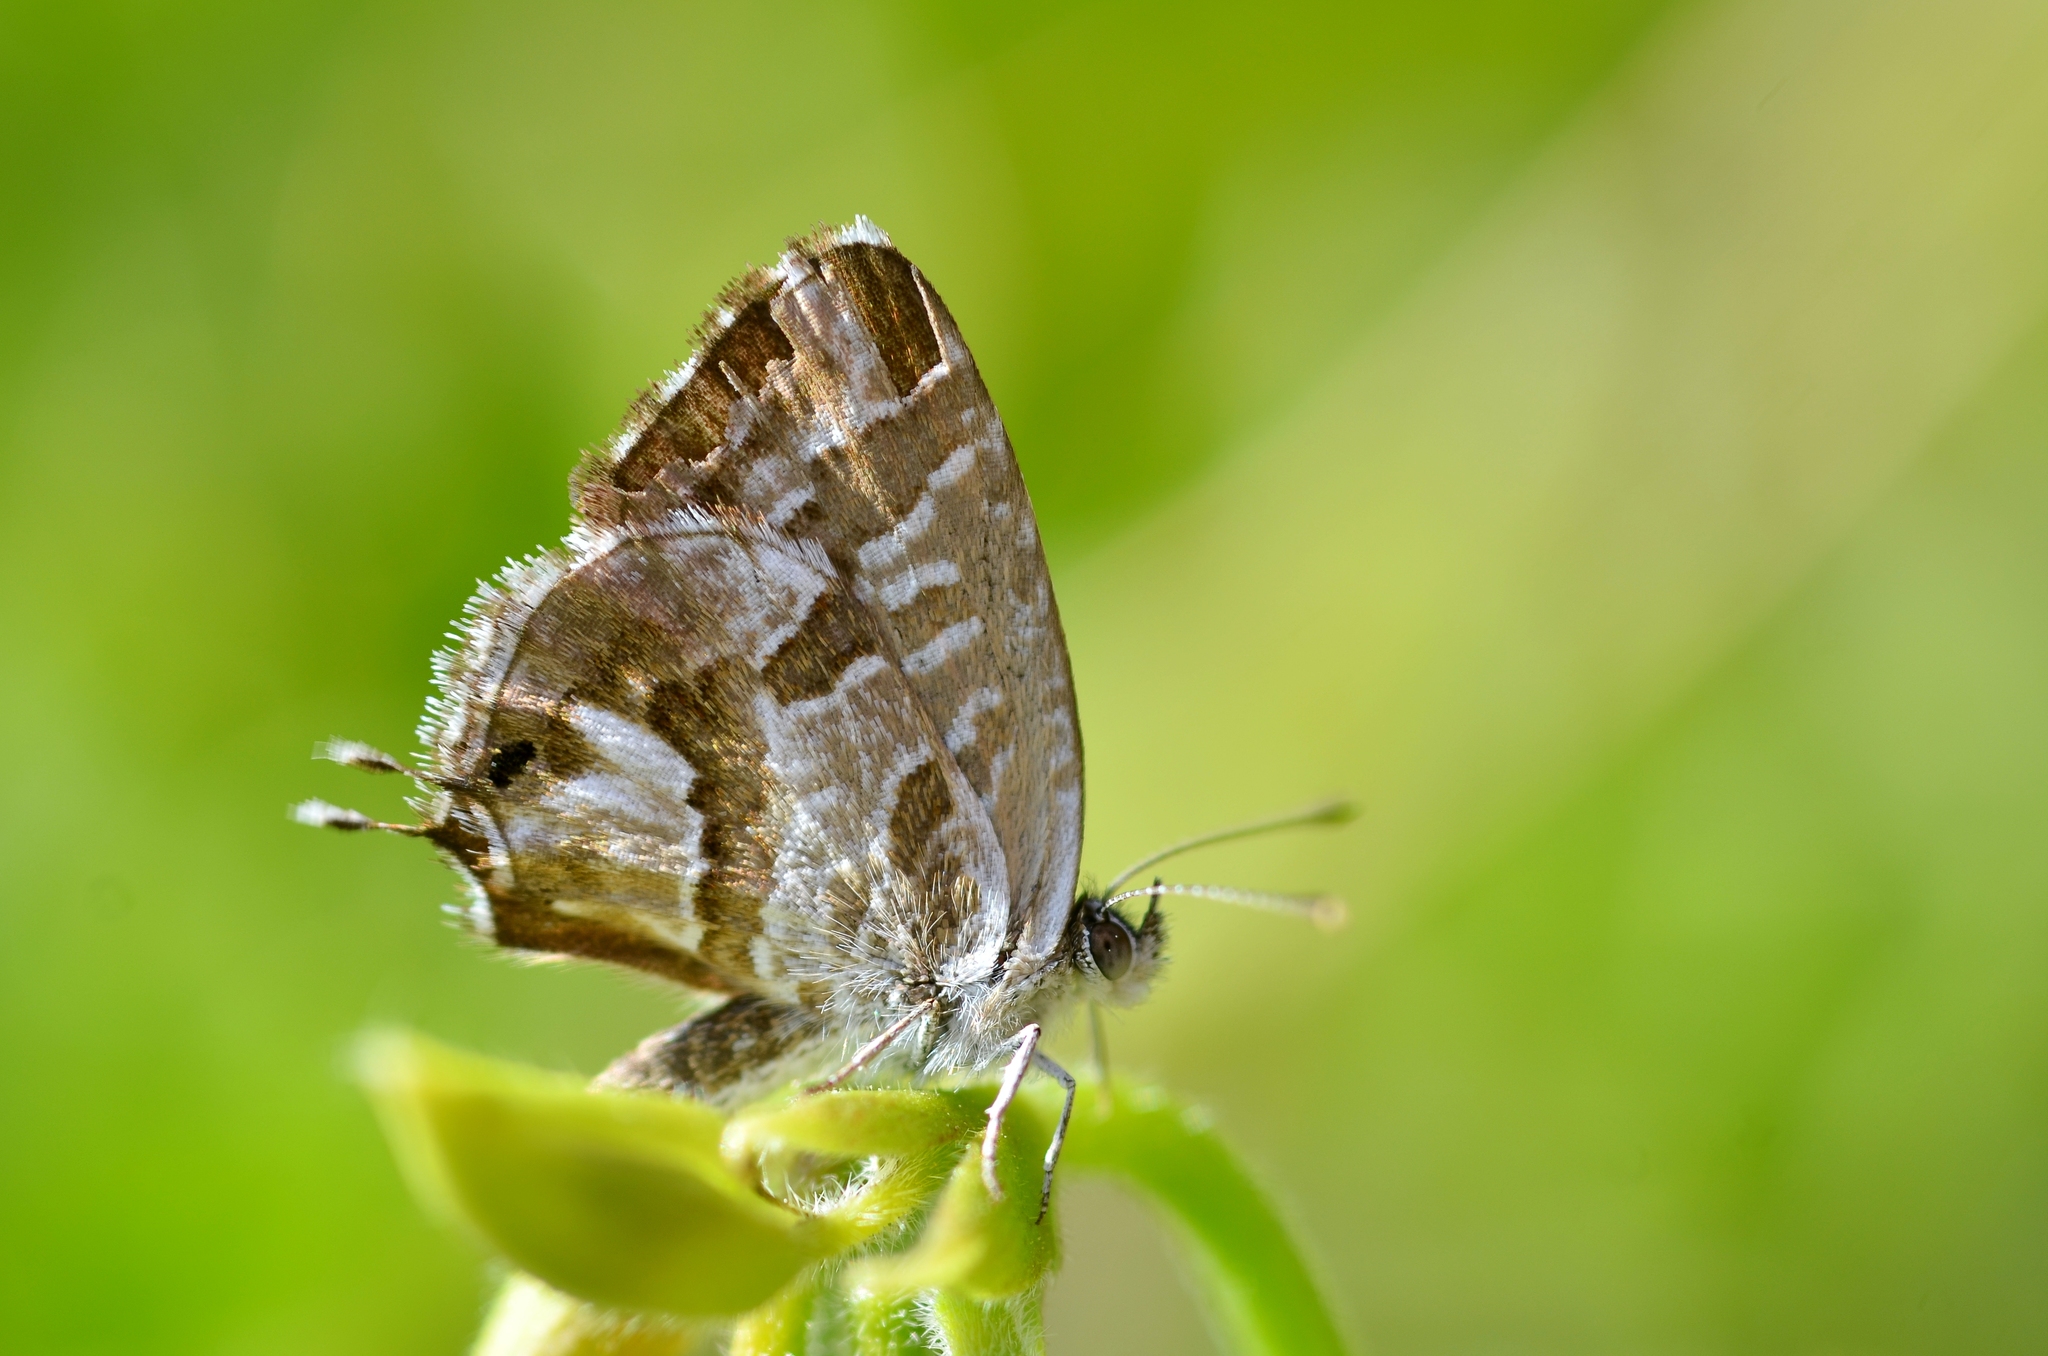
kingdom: Animalia
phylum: Arthropoda
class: Insecta
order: Lepidoptera
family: Lycaenidae
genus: Cacyreus
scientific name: Cacyreus marshalli
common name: Geranium bronze
